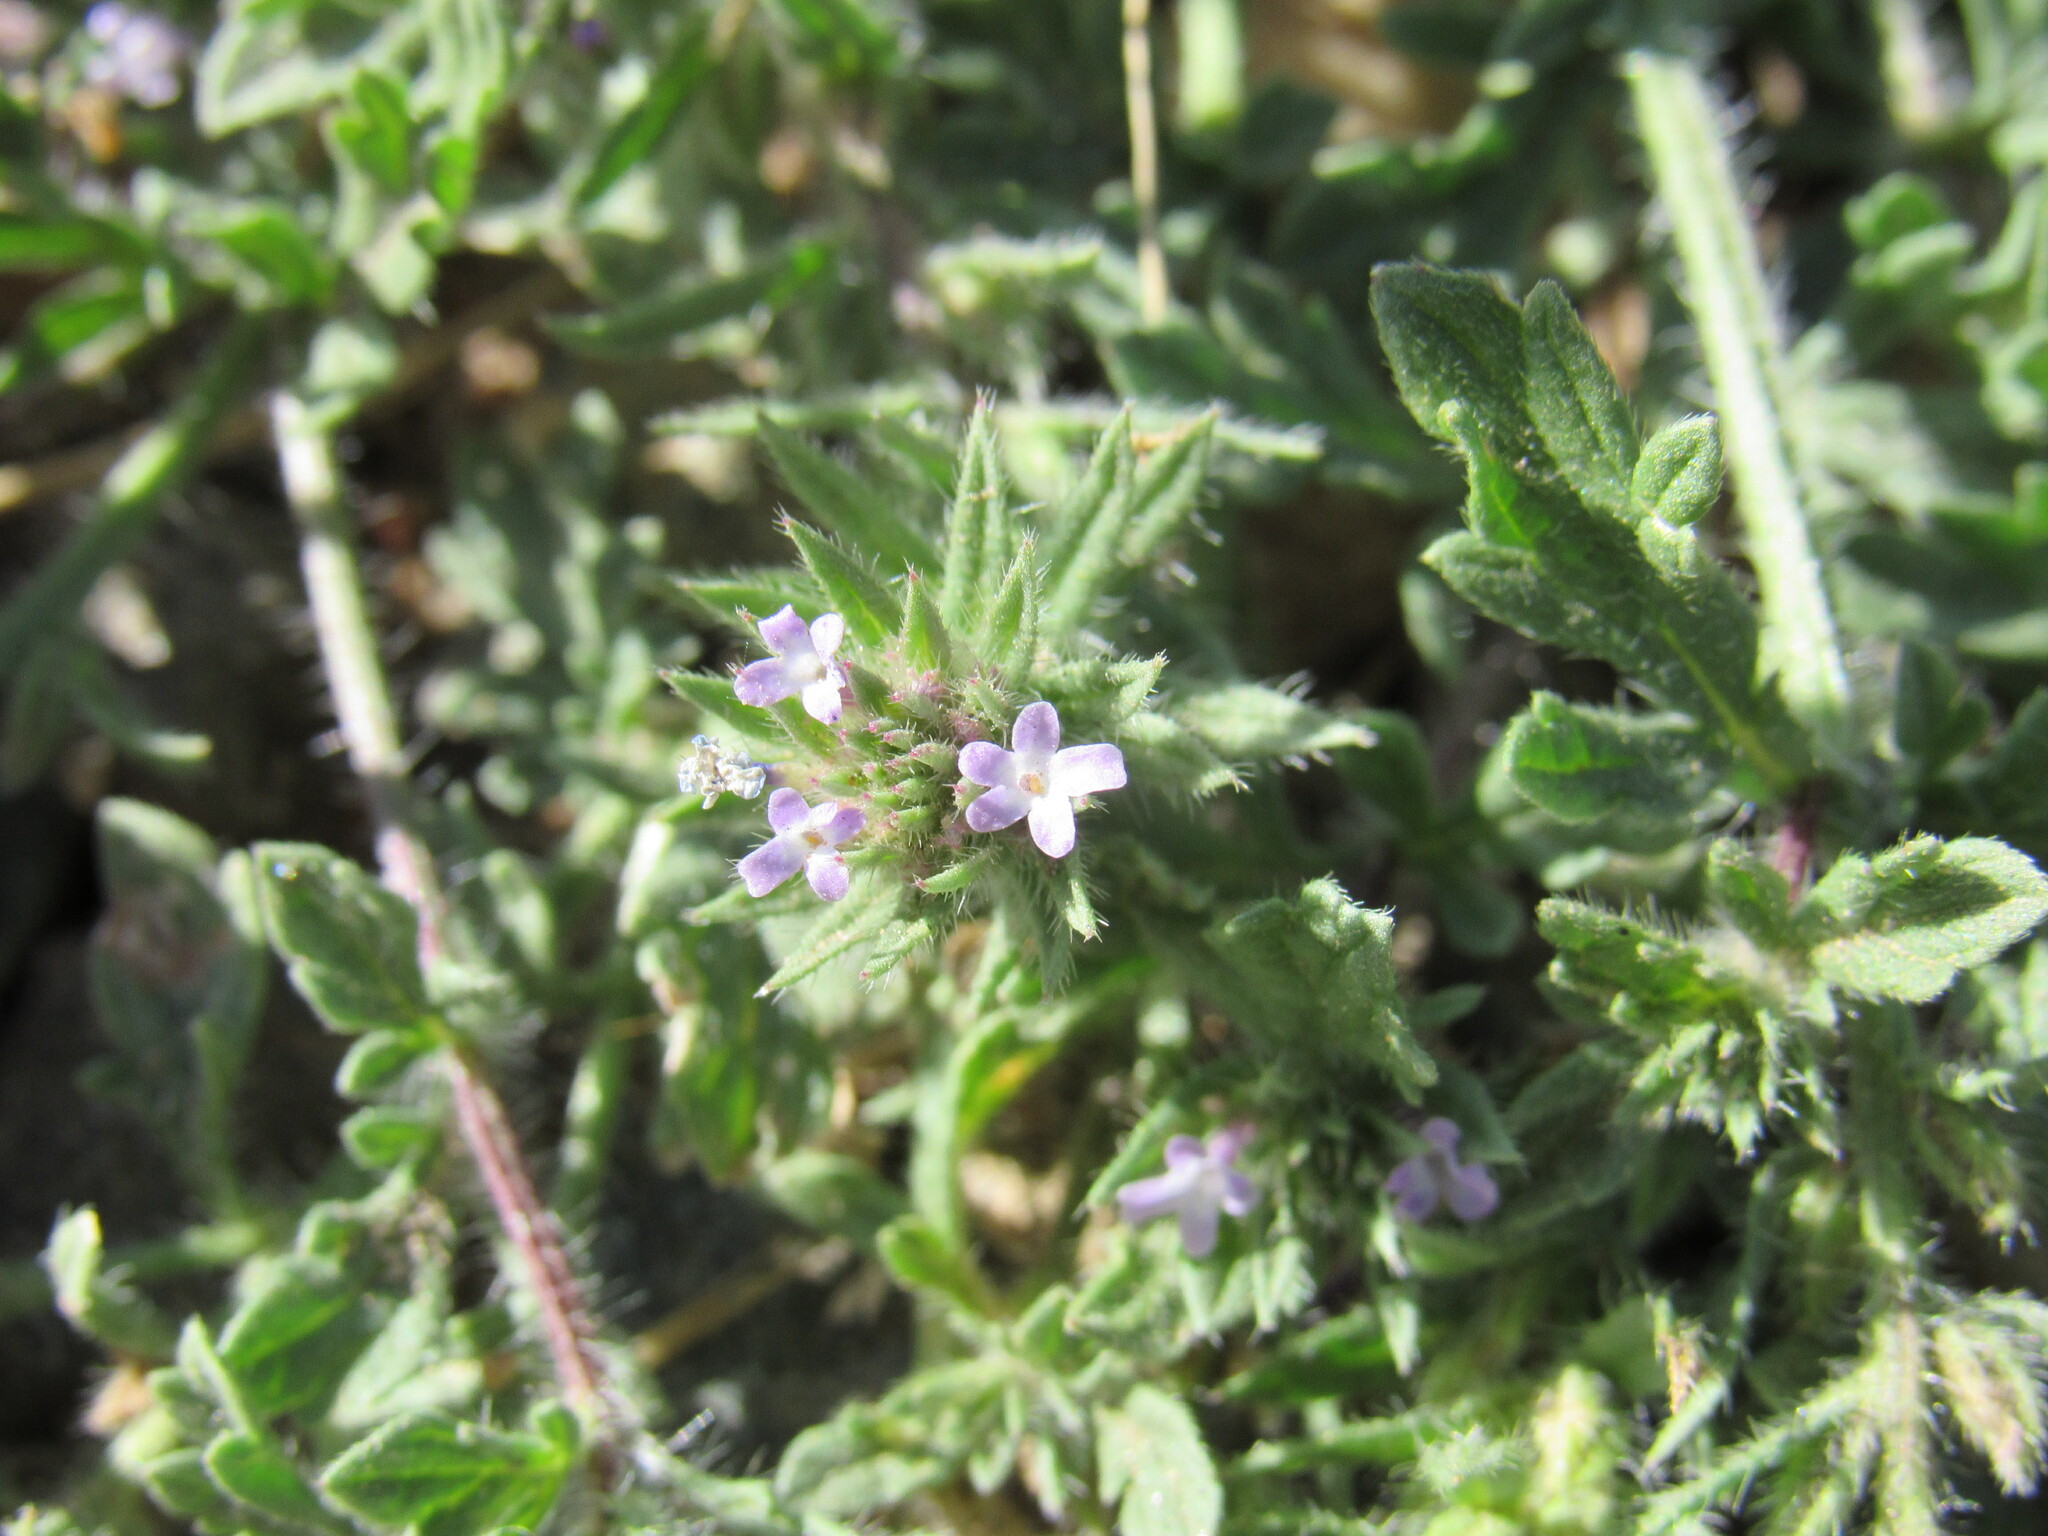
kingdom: Plantae
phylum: Tracheophyta
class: Magnoliopsida
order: Lamiales
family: Verbenaceae
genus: Verbena
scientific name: Verbena bracteata
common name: Bracted vervain
